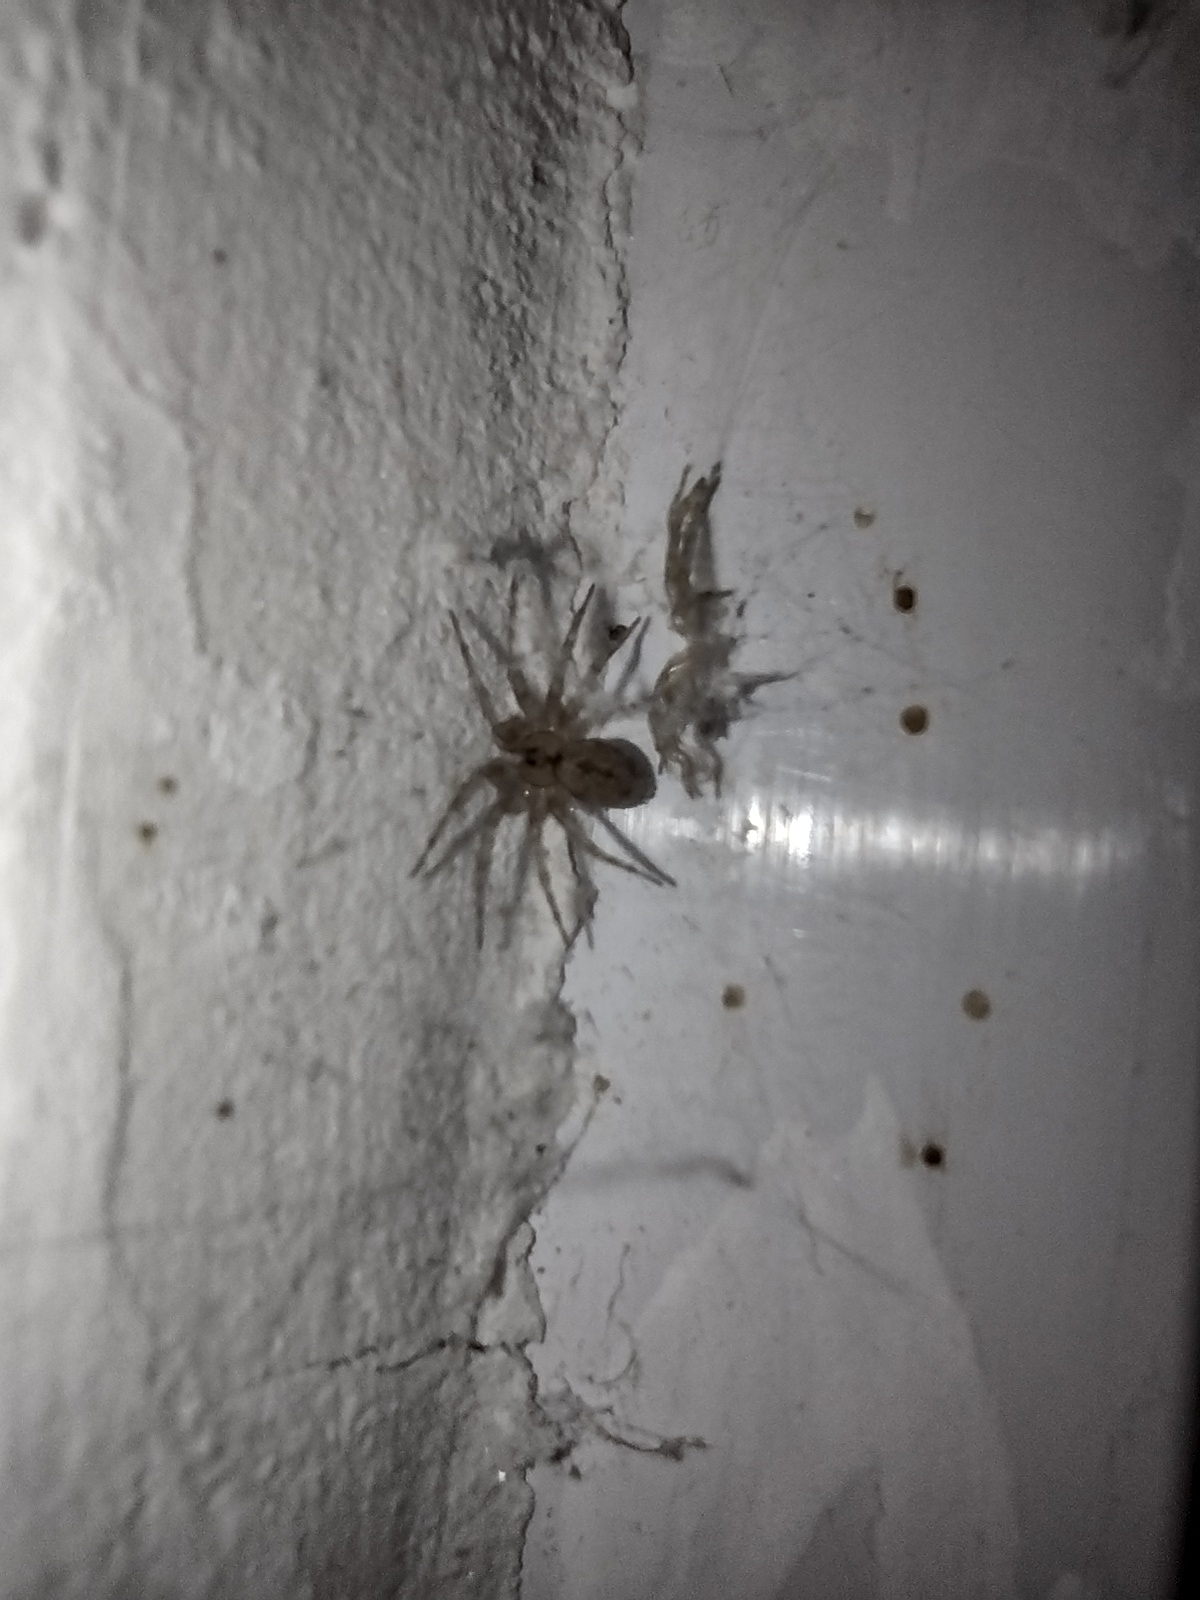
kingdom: Animalia
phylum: Arthropoda
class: Arachnida
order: Araneae
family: Oecobiidae
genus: Oecobius
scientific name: Oecobius navus
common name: Flatmesh weaver
